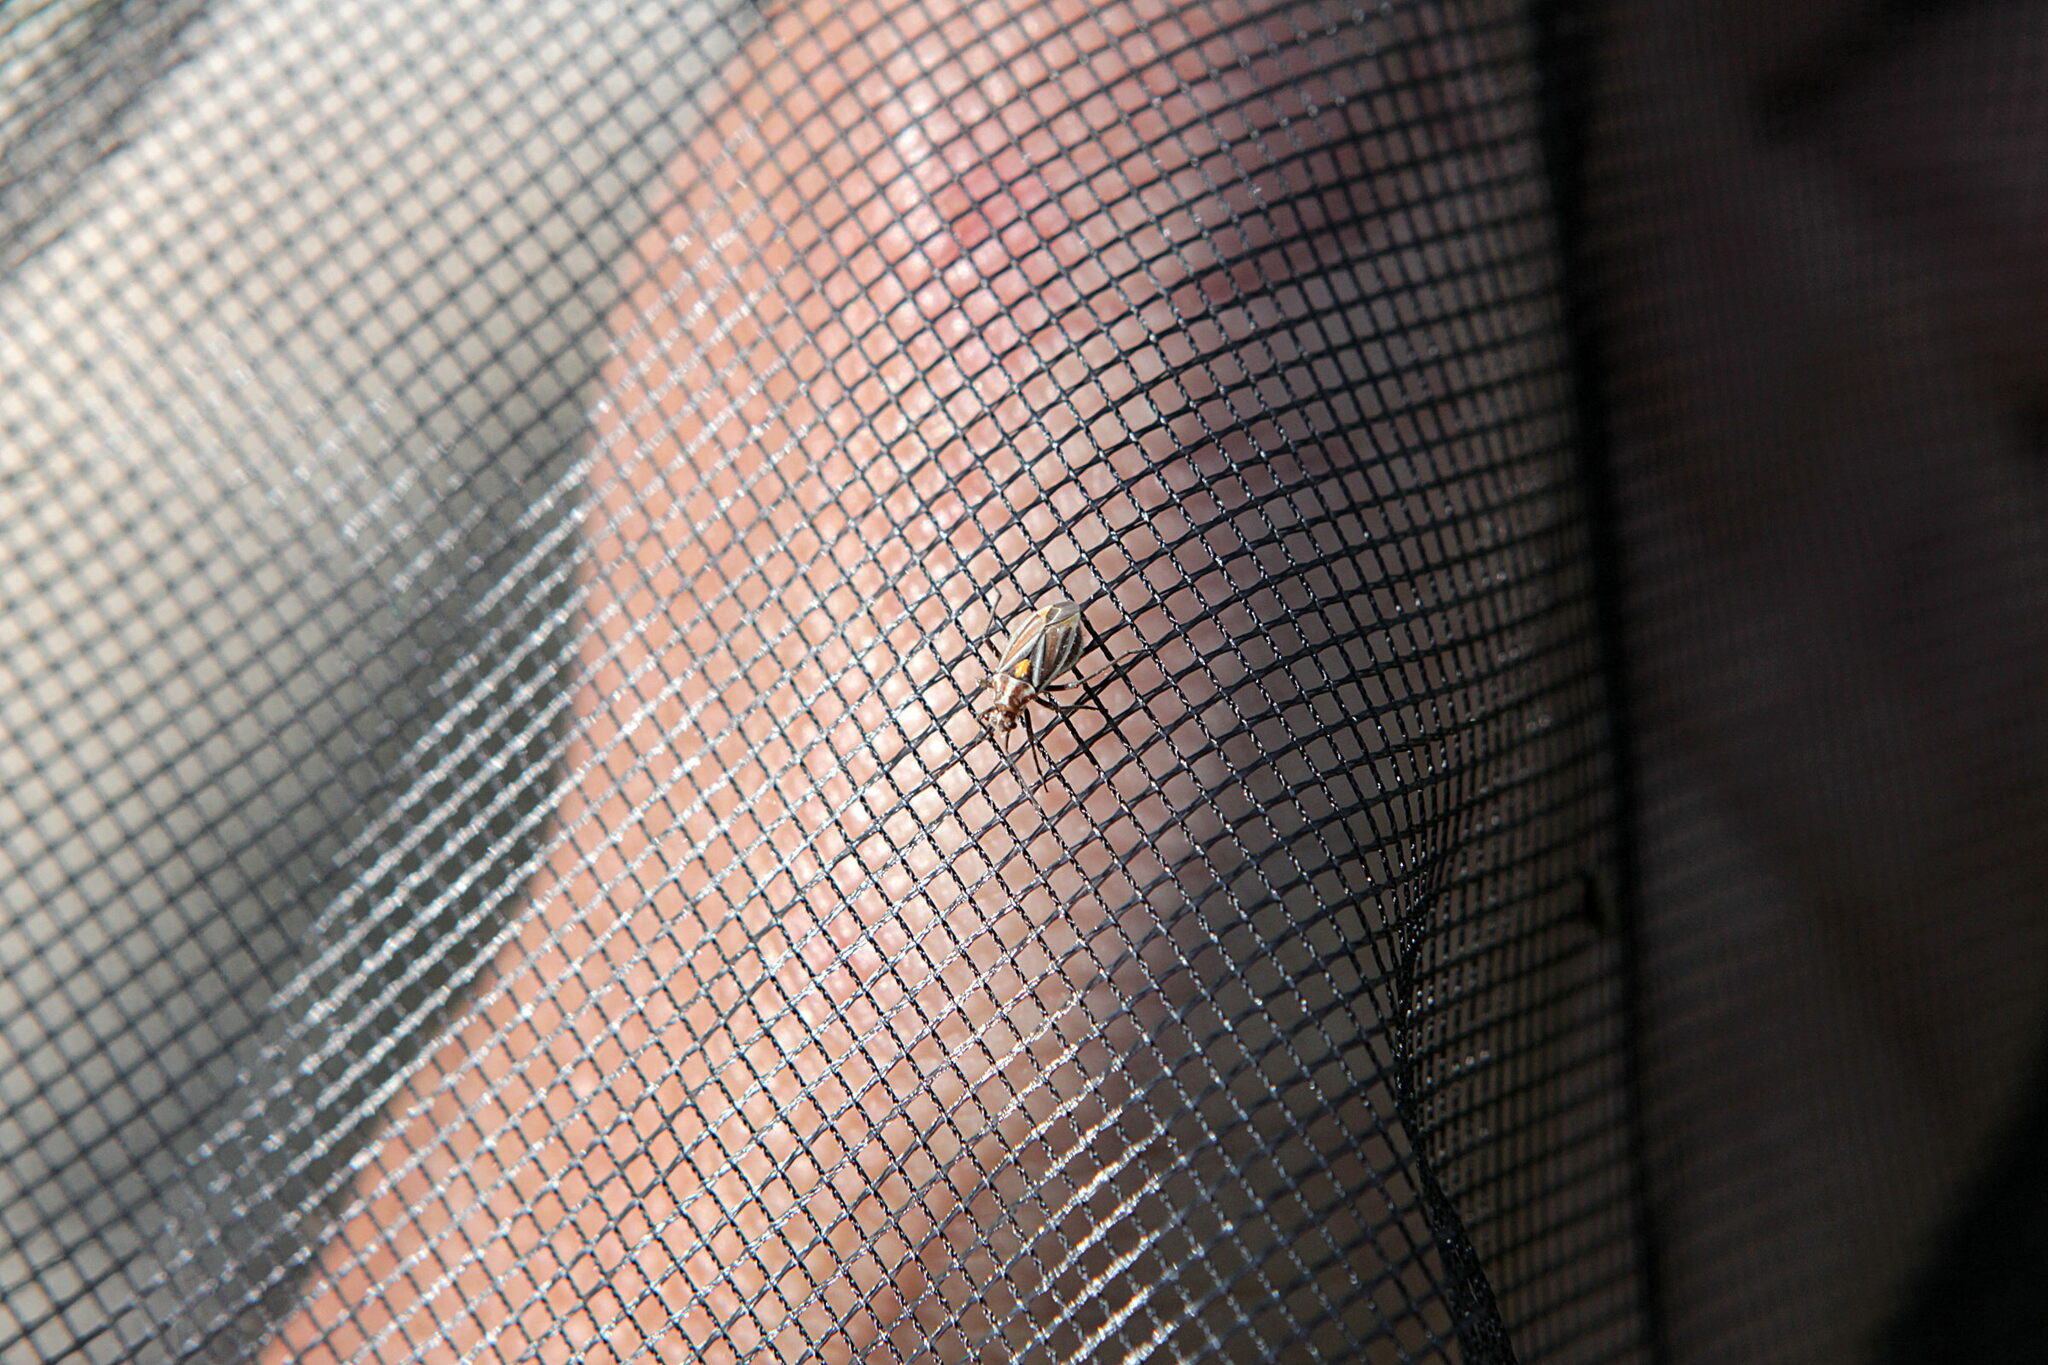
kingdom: Animalia
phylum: Arthropoda
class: Insecta
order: Hemiptera
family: Miridae
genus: Horistus
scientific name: Horistus orientalis
